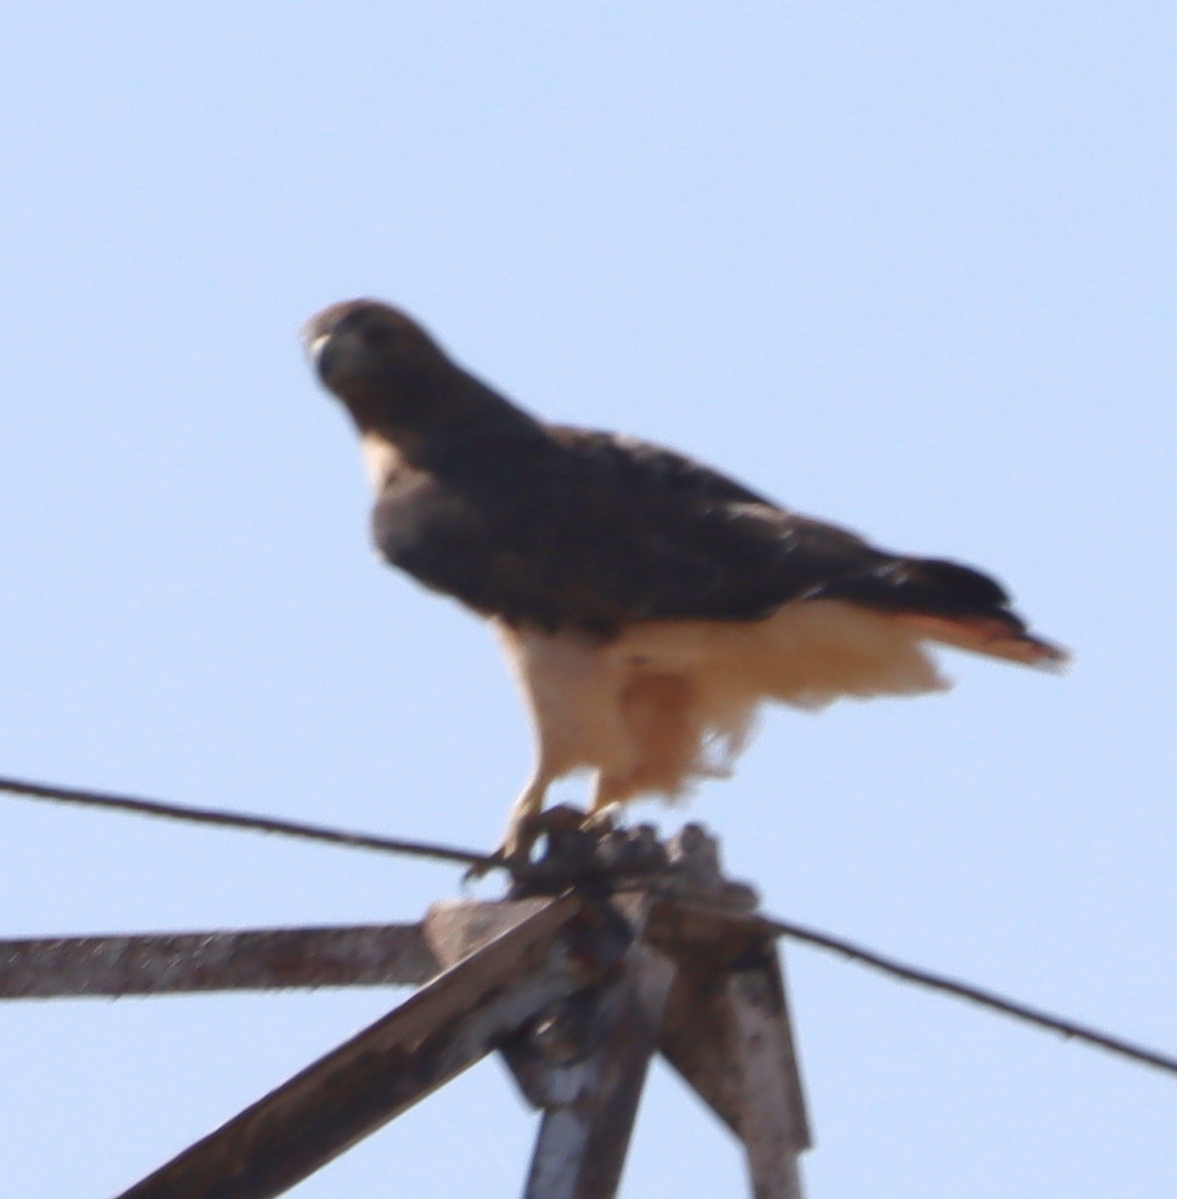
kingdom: Animalia
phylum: Chordata
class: Aves
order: Accipitriformes
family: Accipitridae
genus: Buteo
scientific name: Buteo jamaicensis
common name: Red-tailed hawk
